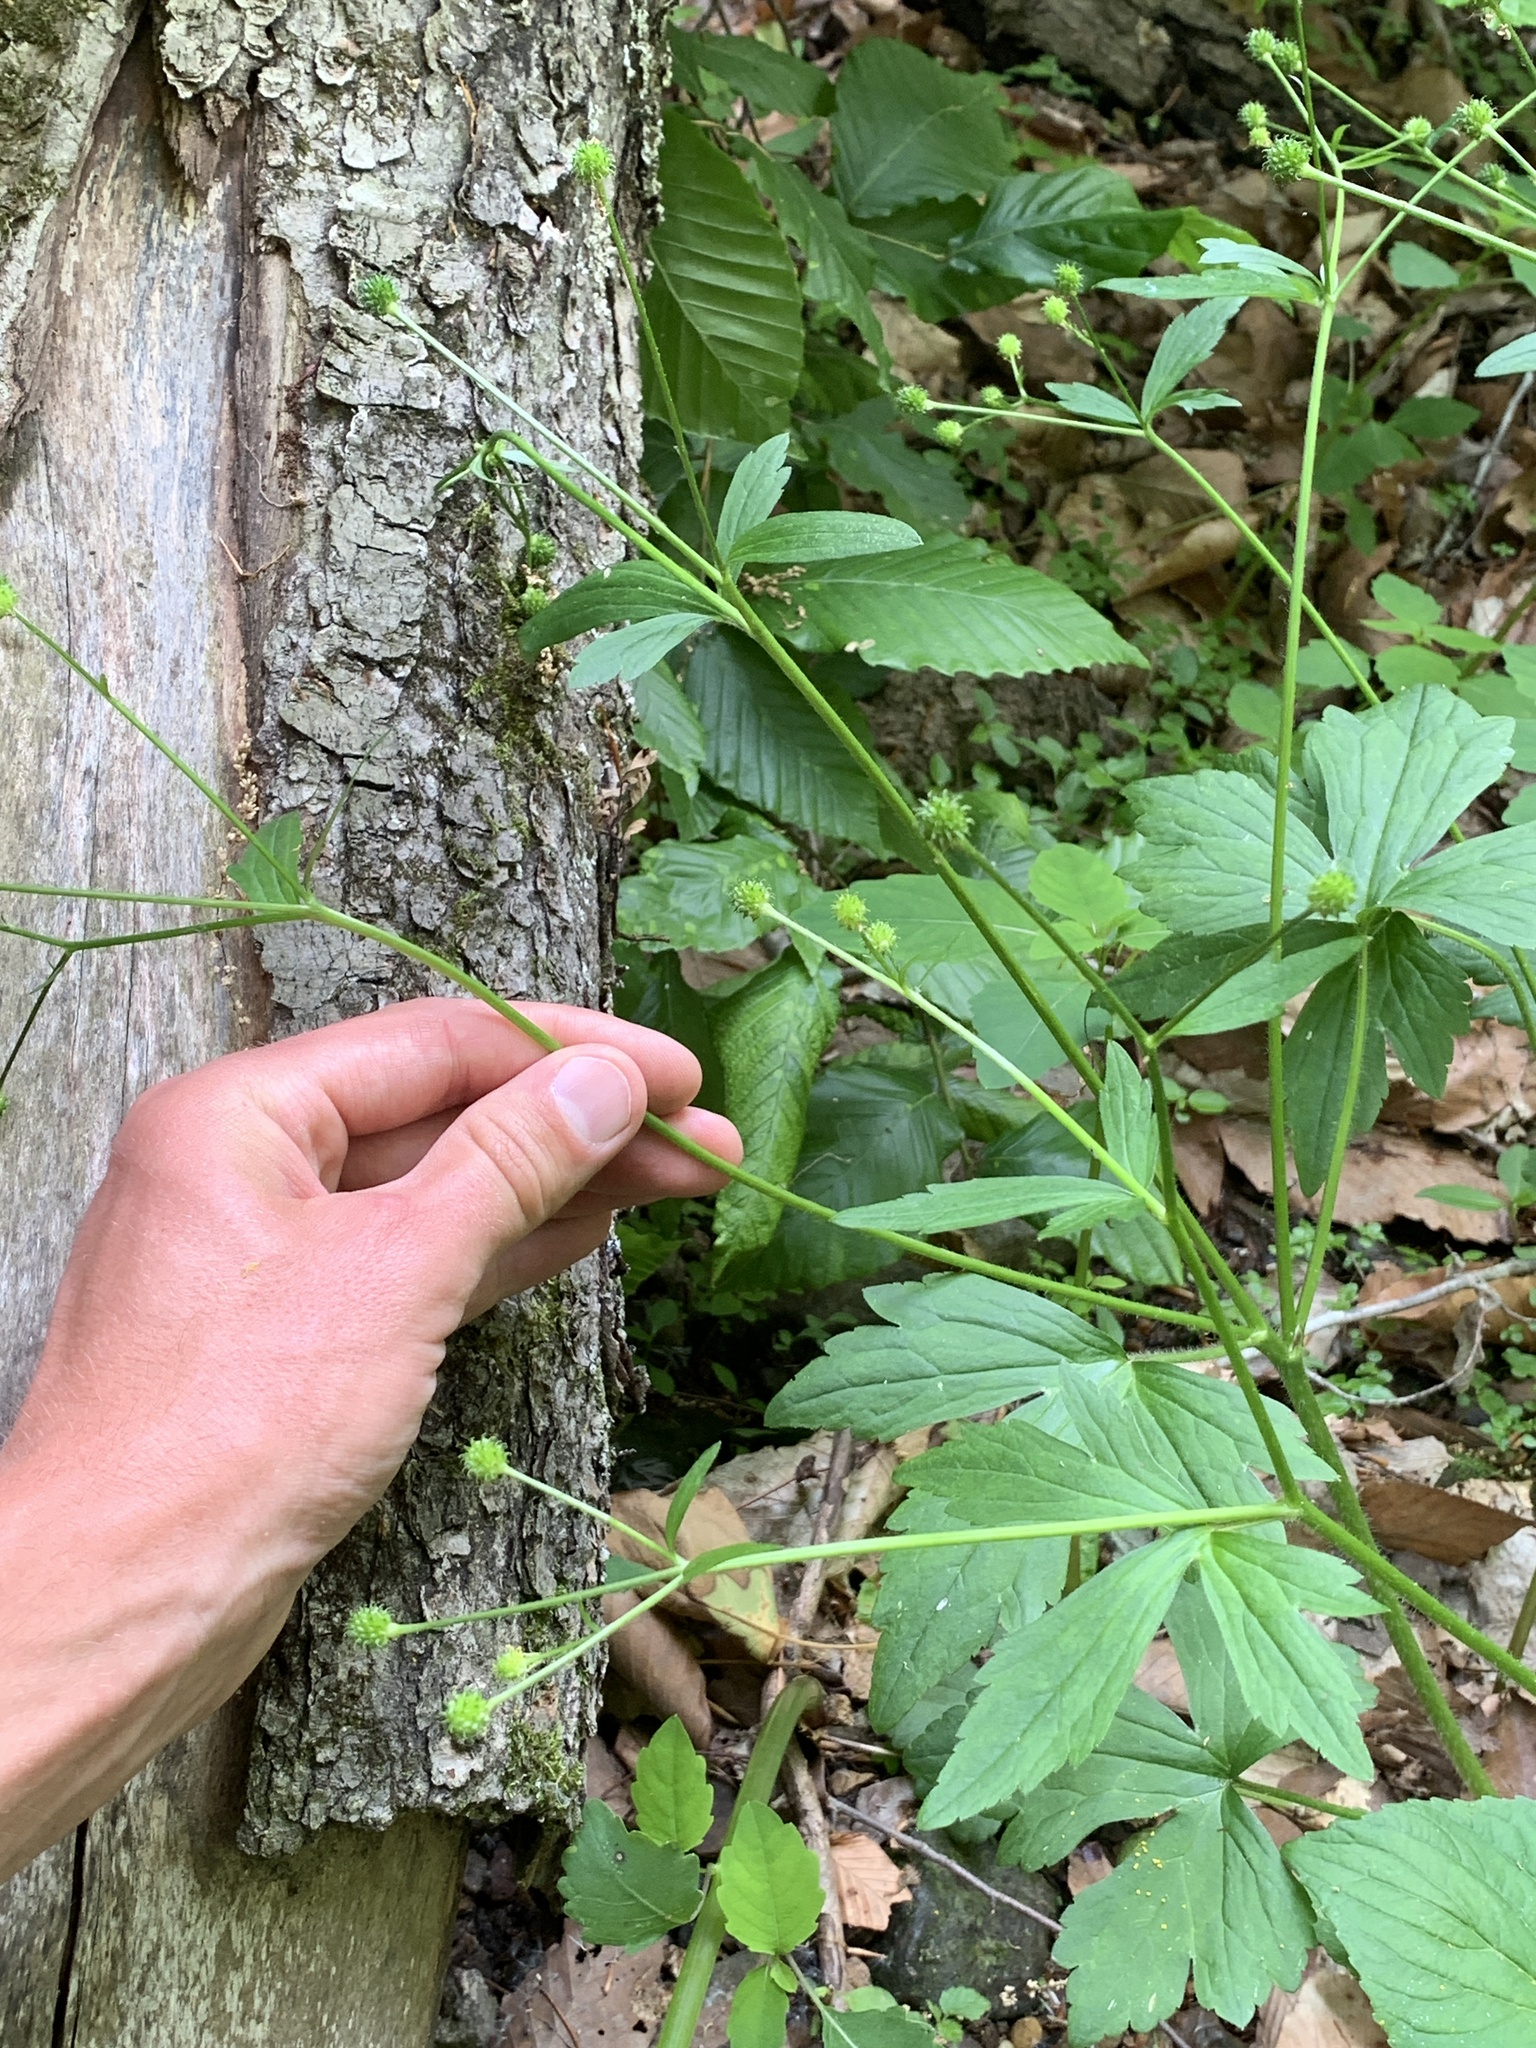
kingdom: Plantae
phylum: Tracheophyta
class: Magnoliopsida
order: Ranunculales
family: Ranunculaceae
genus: Ranunculus
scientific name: Ranunculus recurvatus
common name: Blisterwort
